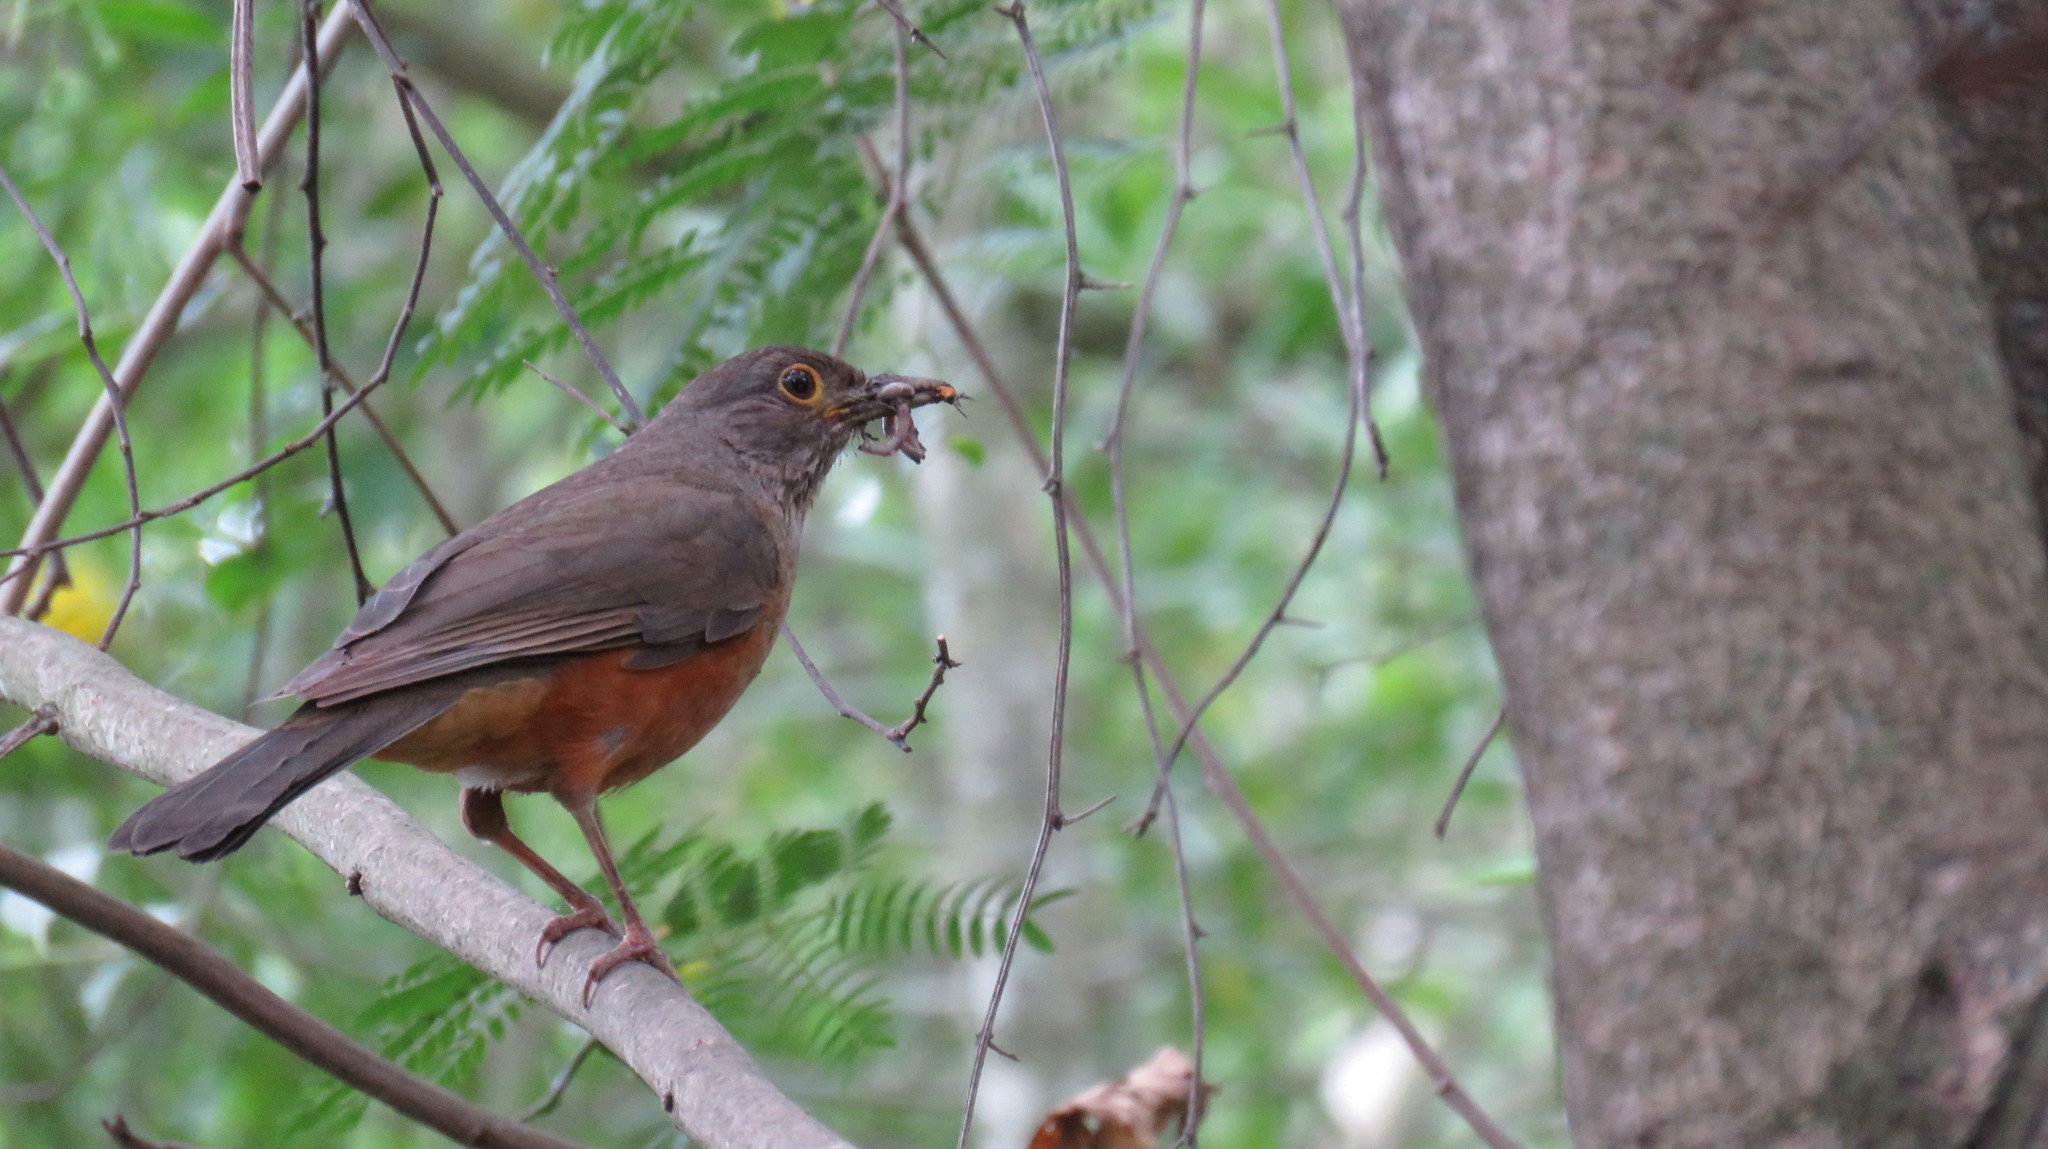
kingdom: Animalia
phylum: Chordata
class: Aves
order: Passeriformes
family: Turdidae
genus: Turdus
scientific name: Turdus rufiventris
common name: Rufous-bellied thrush
